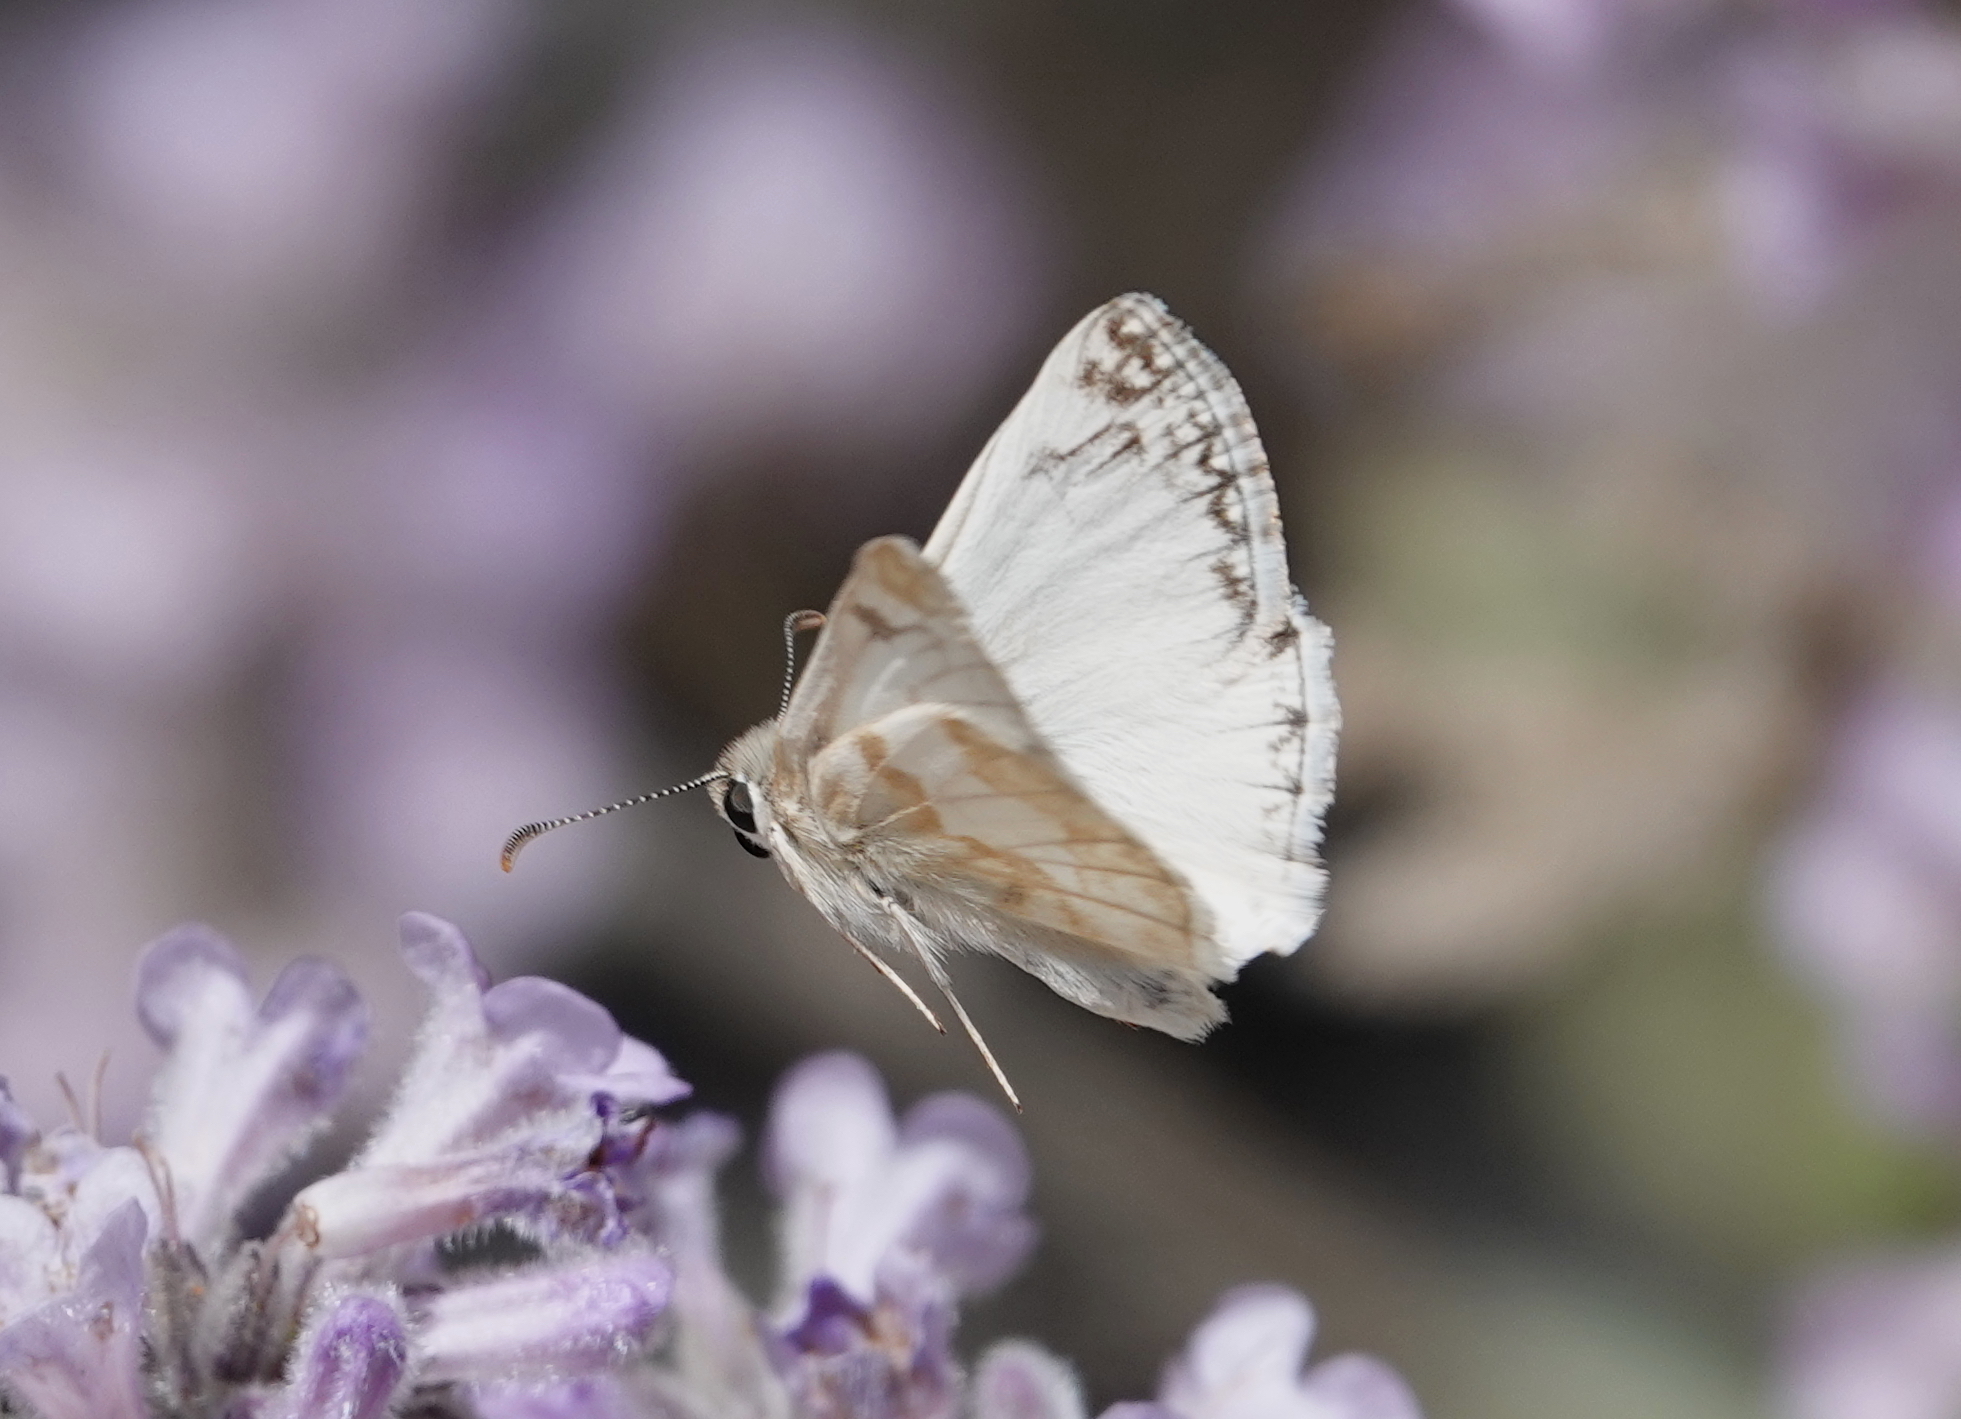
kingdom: Animalia
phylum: Arthropoda
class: Insecta
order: Lepidoptera
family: Hesperiidae
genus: Heliopetes
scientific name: Heliopetes ericetorum
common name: Northern white-skipper
